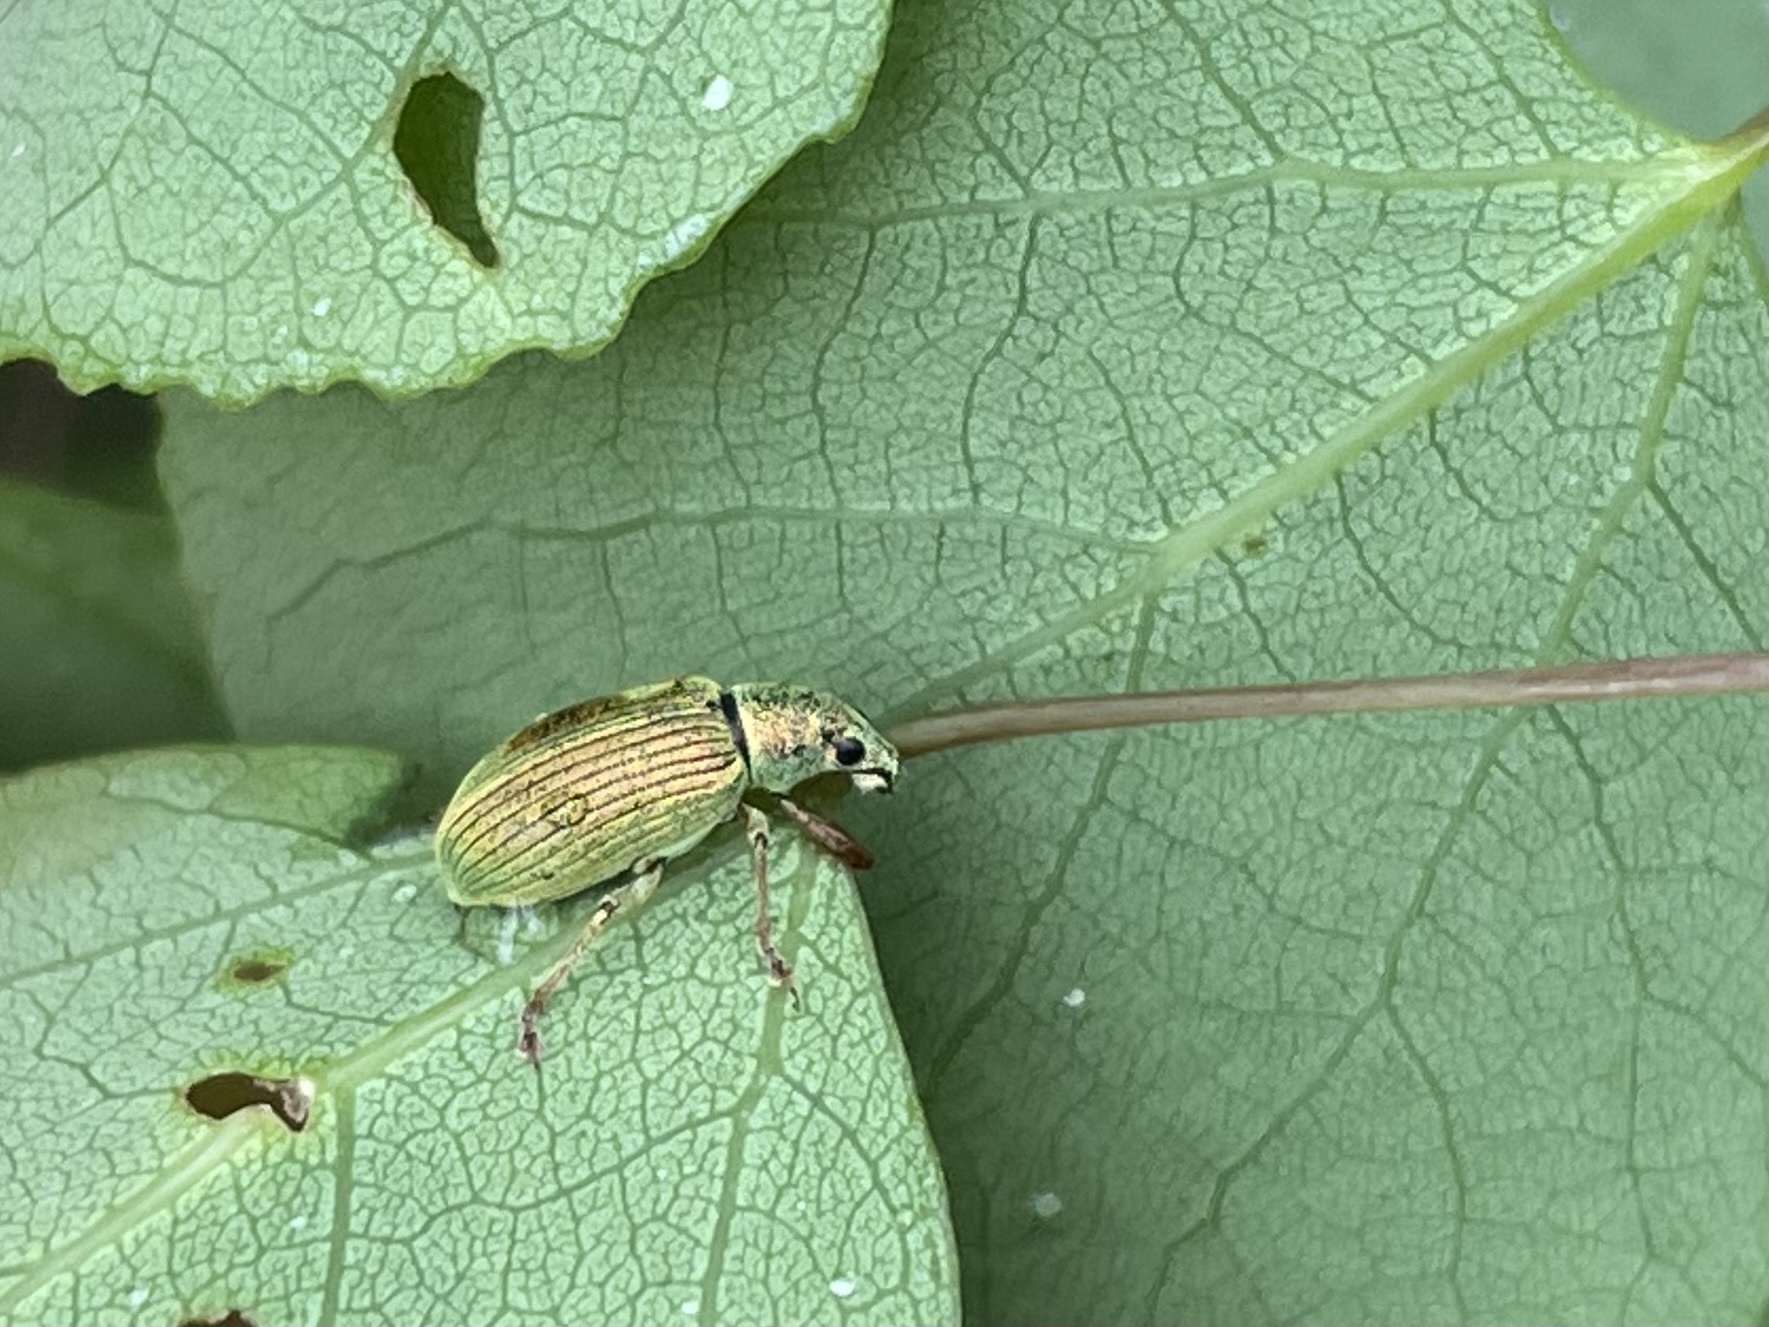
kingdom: Animalia
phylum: Arthropoda
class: Insecta
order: Coleoptera
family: Curculionidae
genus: Polydrusus
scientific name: Polydrusus formosus
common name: Weevil
